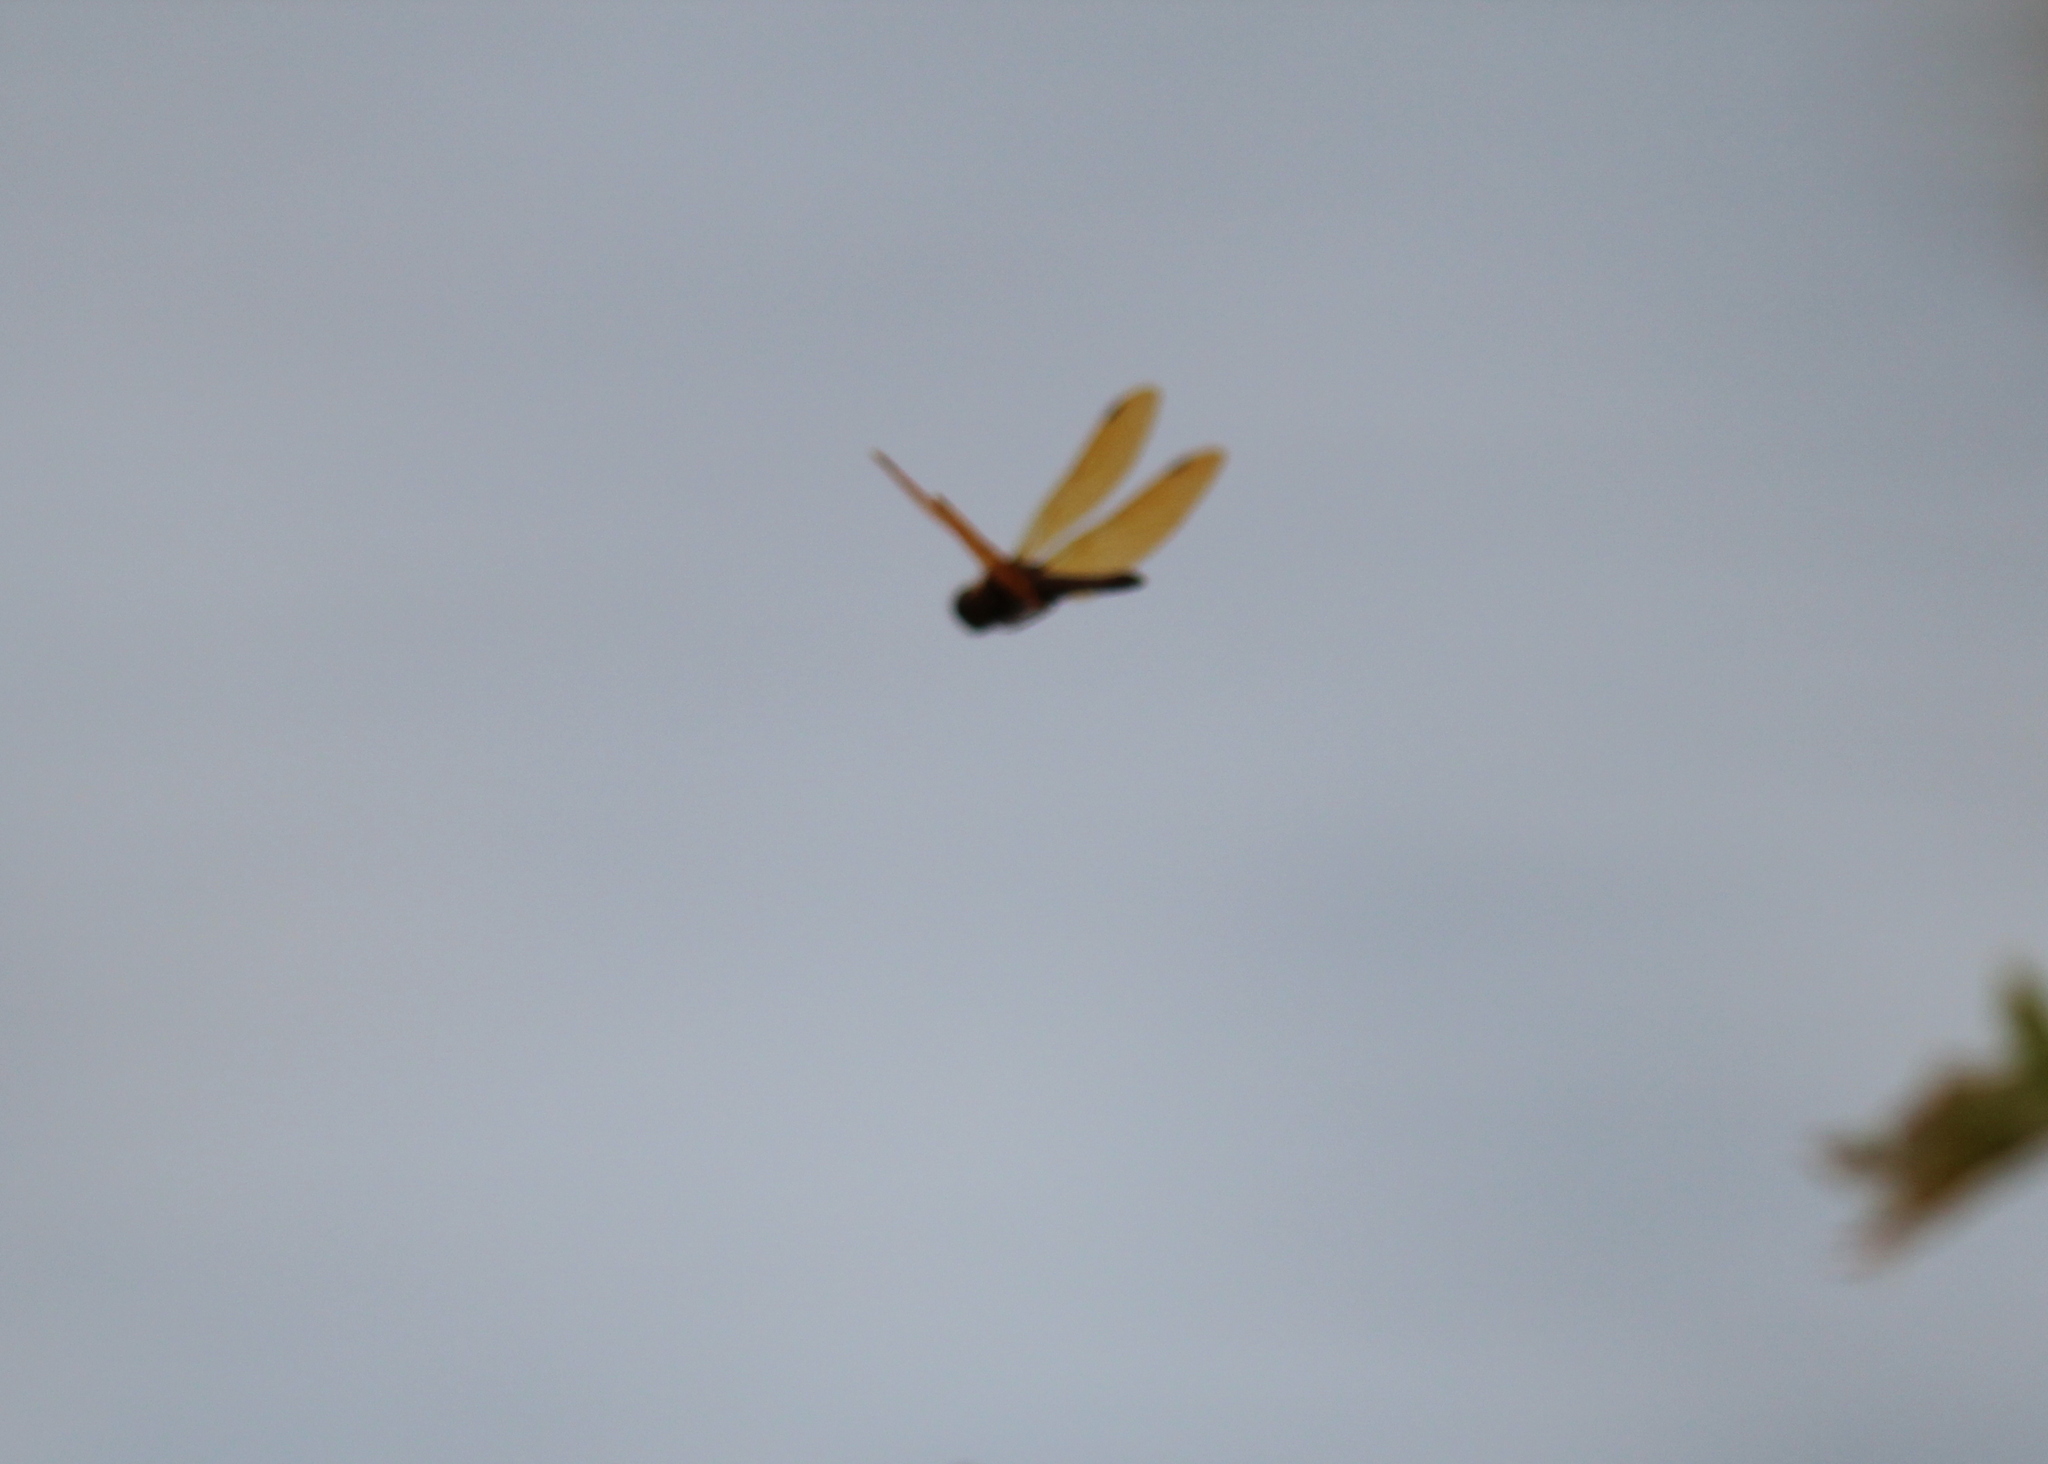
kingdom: Animalia
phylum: Arthropoda
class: Insecta
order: Odonata
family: Libellulidae
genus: Perithemis
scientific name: Perithemis tenera
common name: Eastern amberwing
